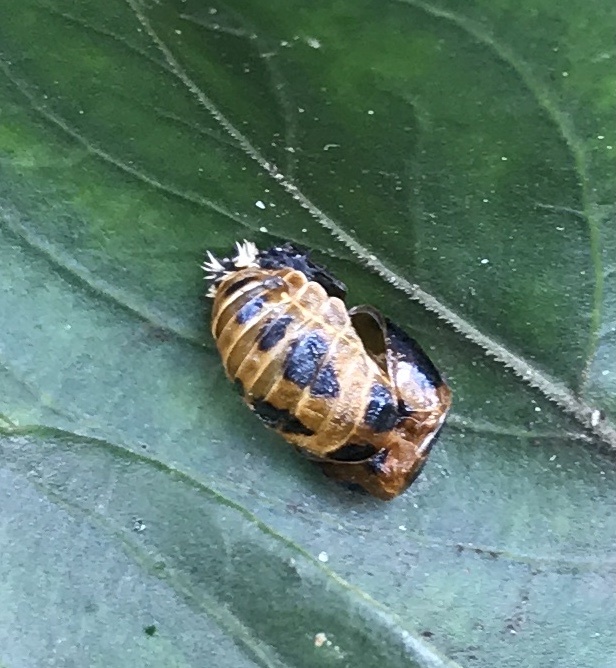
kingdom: Animalia
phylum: Arthropoda
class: Insecta
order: Coleoptera
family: Coccinellidae
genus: Harmonia
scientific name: Harmonia axyridis
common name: Harlequin ladybird
